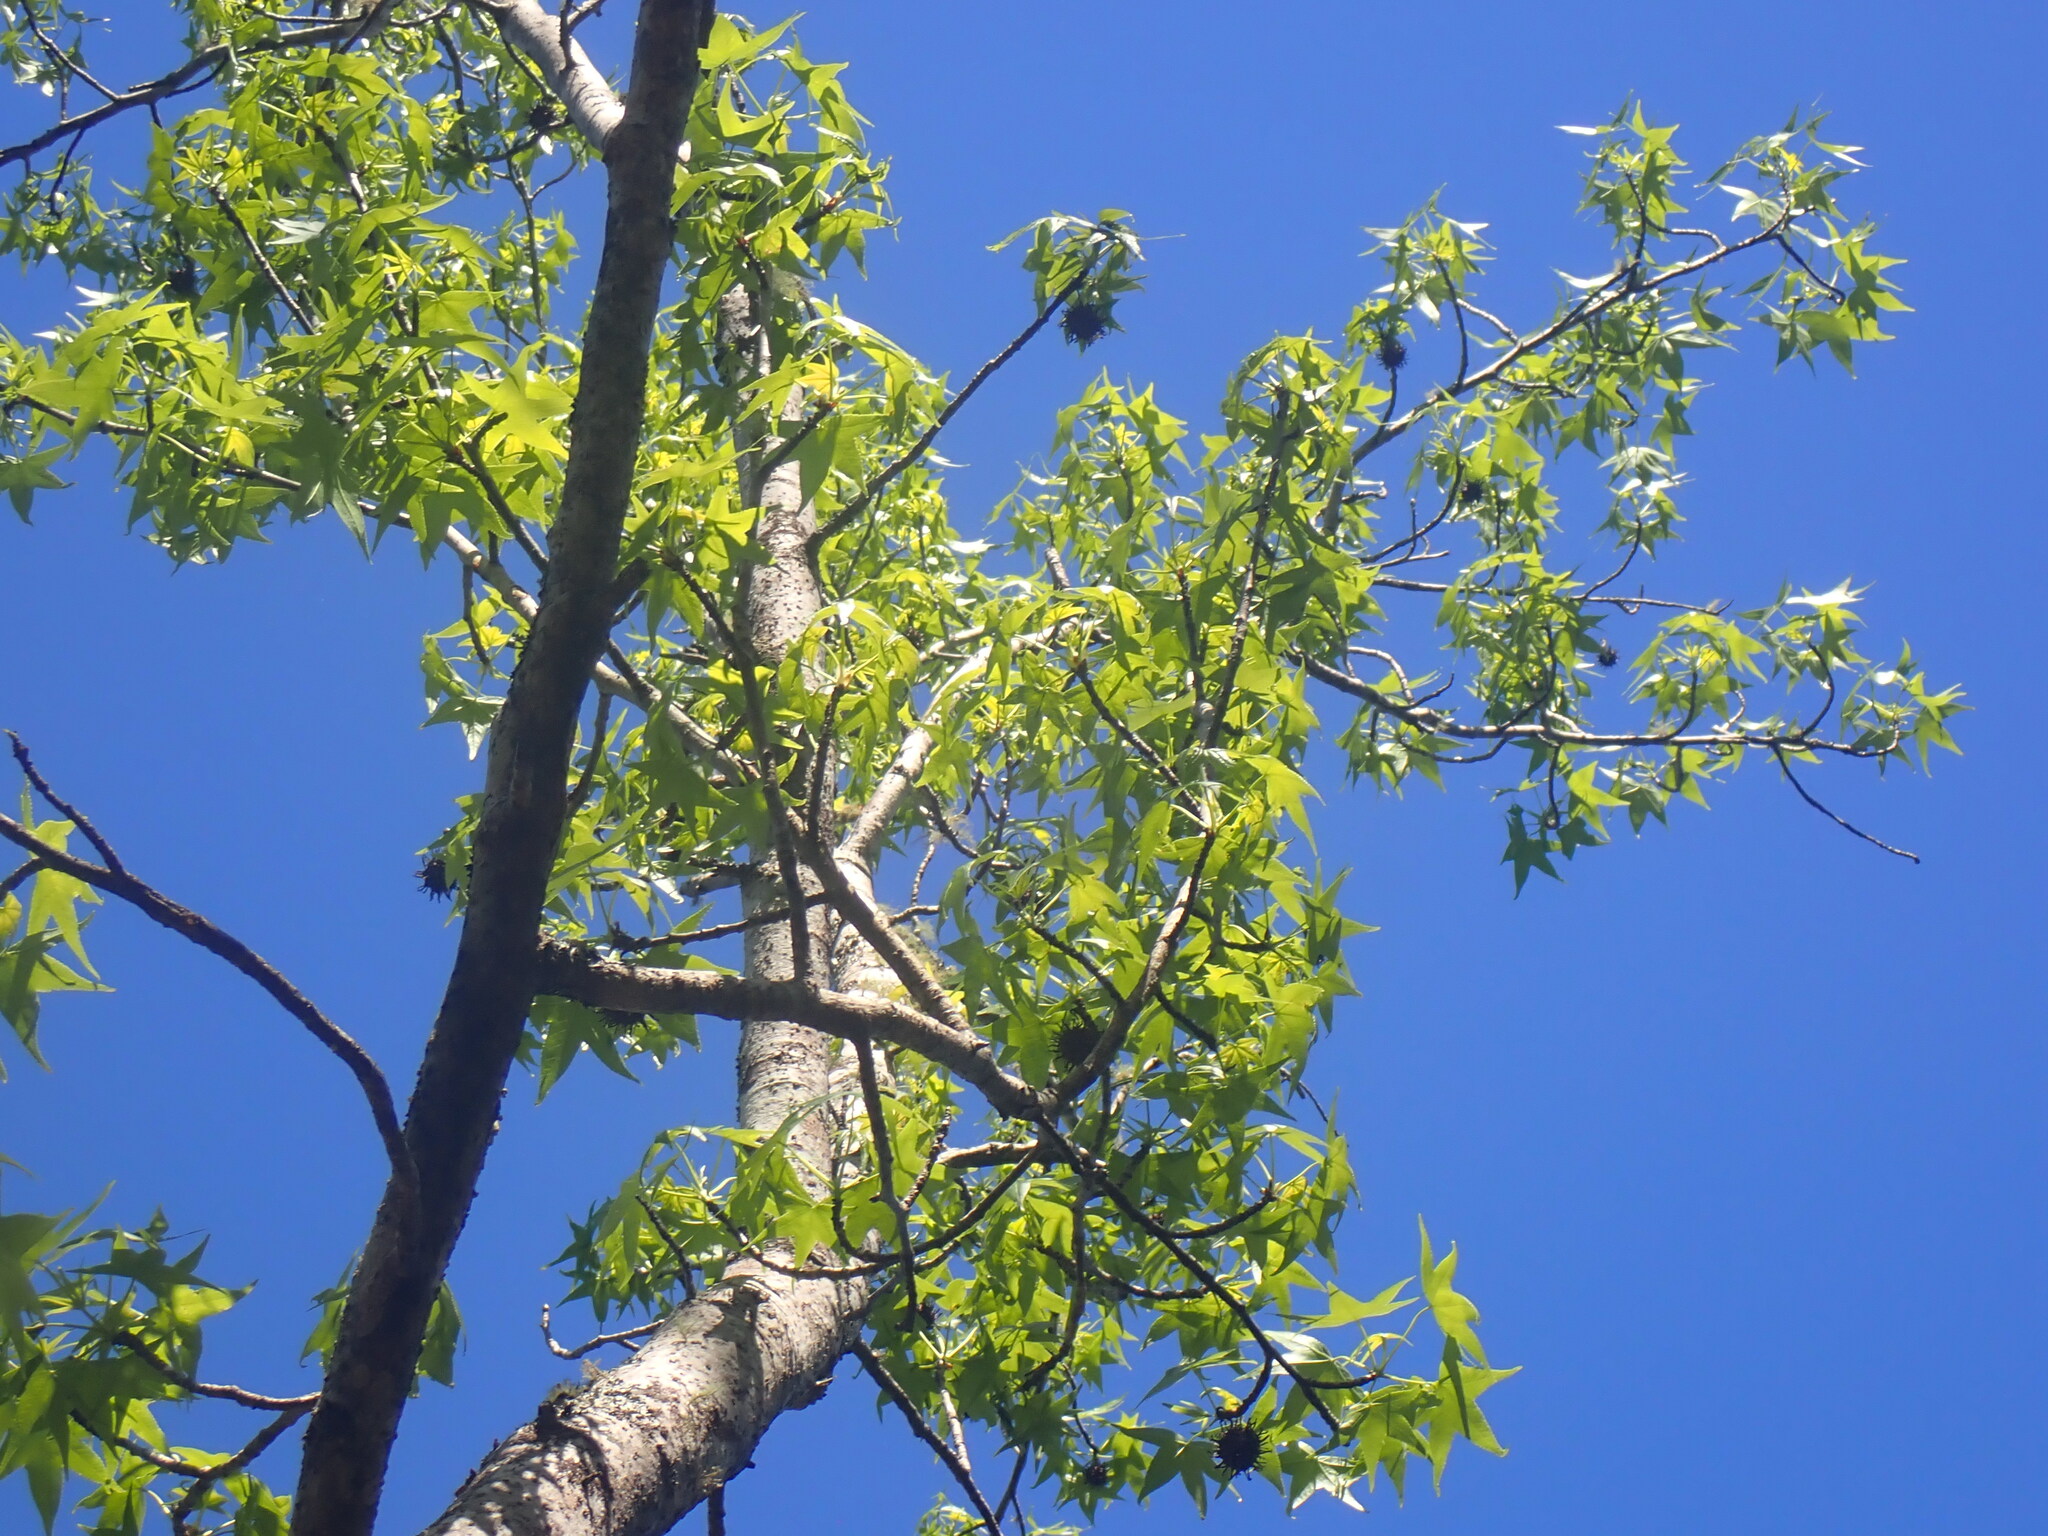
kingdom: Plantae
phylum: Tracheophyta
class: Magnoliopsida
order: Saxifragales
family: Altingiaceae
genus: Liquidambar
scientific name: Liquidambar styraciflua
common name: Sweet gum
